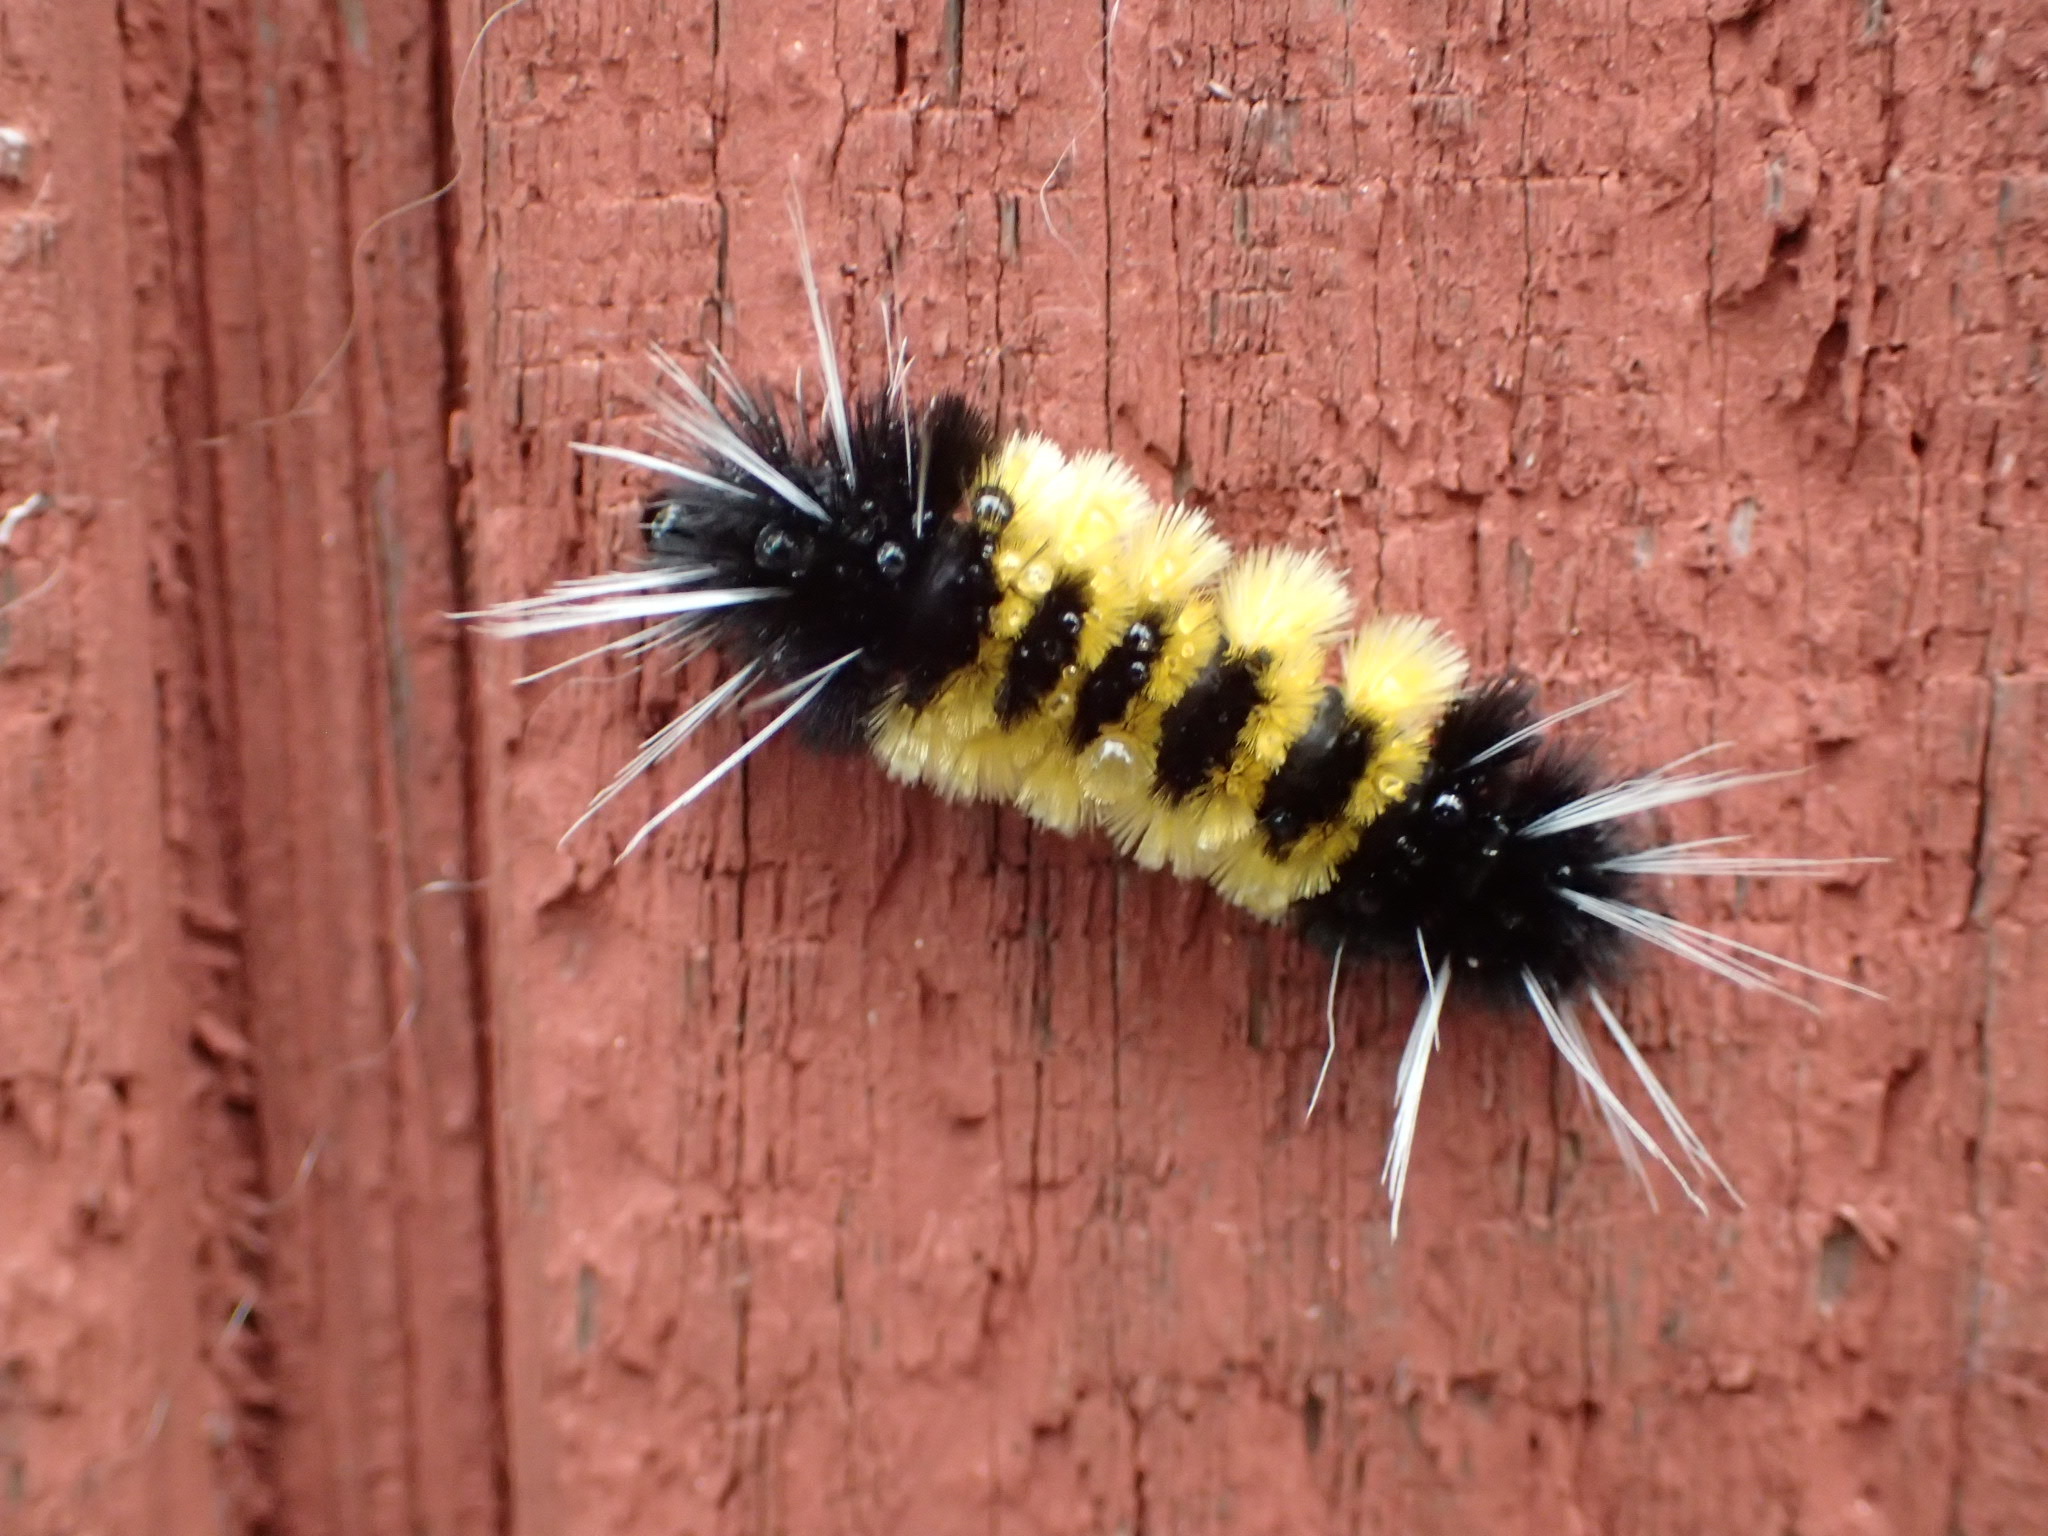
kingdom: Animalia
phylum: Arthropoda
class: Insecta
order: Lepidoptera
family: Erebidae
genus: Lophocampa
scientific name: Lophocampa maculata
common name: Spotted tussock moth
